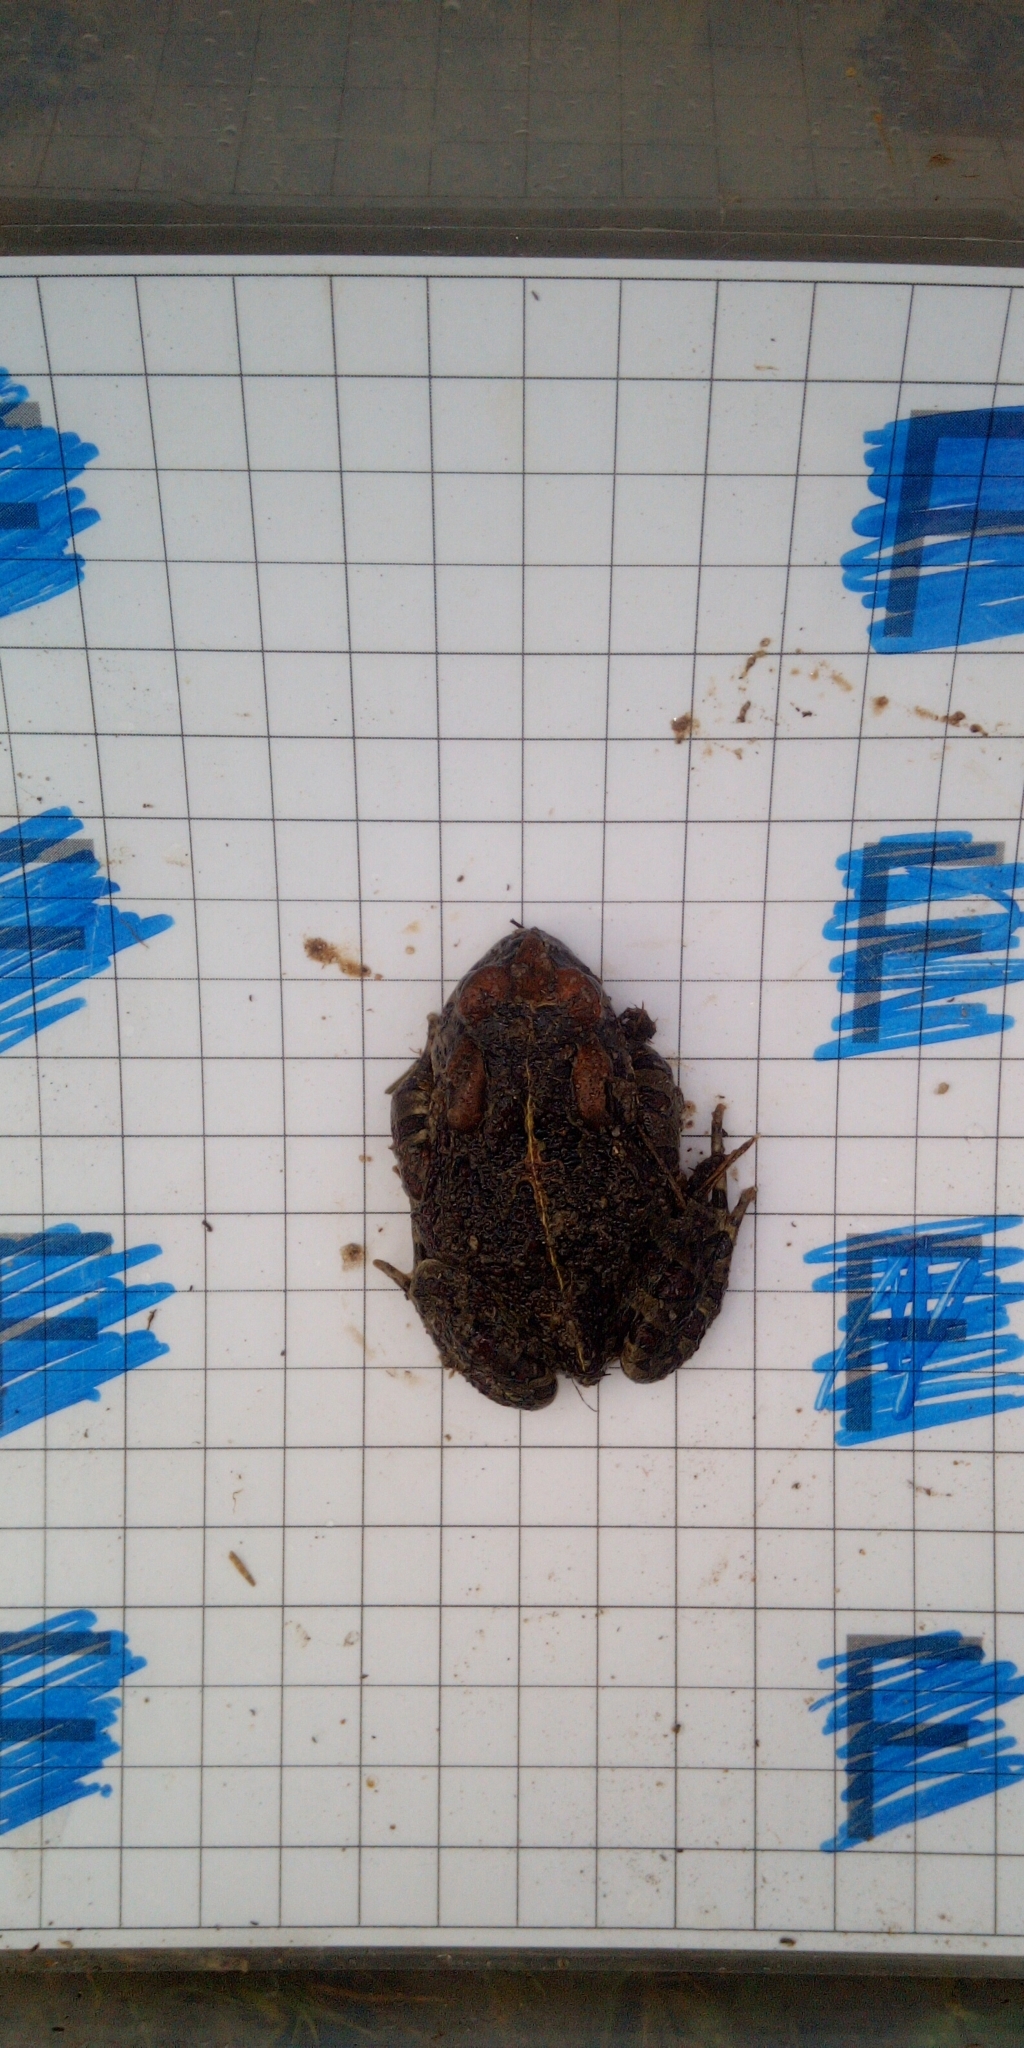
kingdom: Animalia
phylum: Chordata
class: Amphibia
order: Anura
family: Bufonidae
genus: Sclerophrys
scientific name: Sclerophrys pantherina
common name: Panther toad
